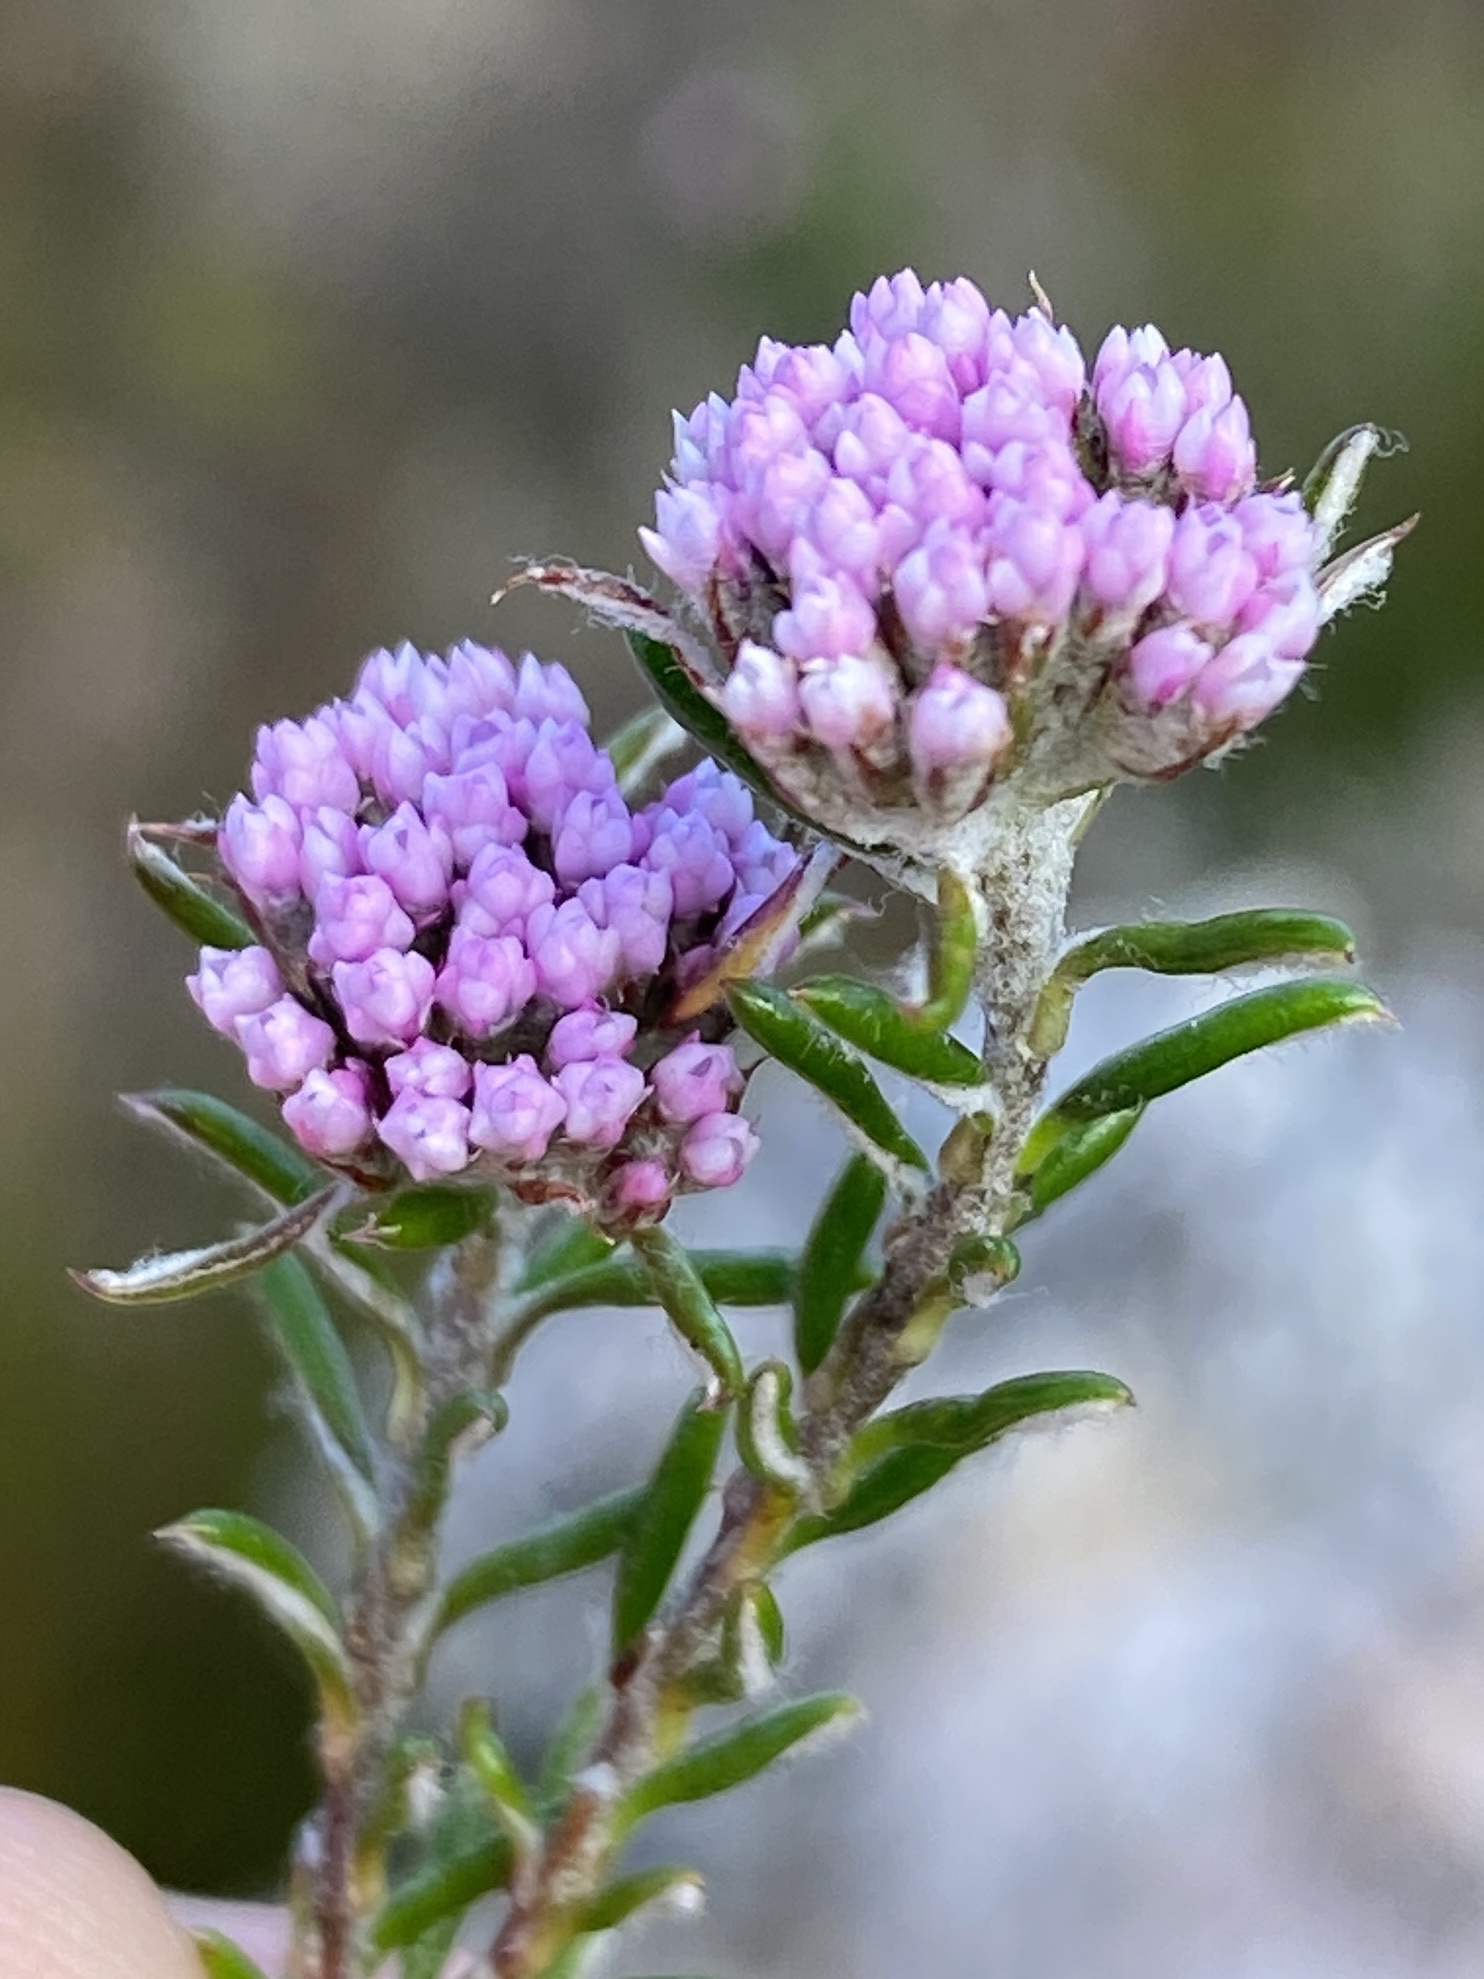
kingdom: Plantae
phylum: Tracheophyta
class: Magnoliopsida
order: Asterales
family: Asteraceae
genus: Metalasia
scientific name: Metalasia serrata
